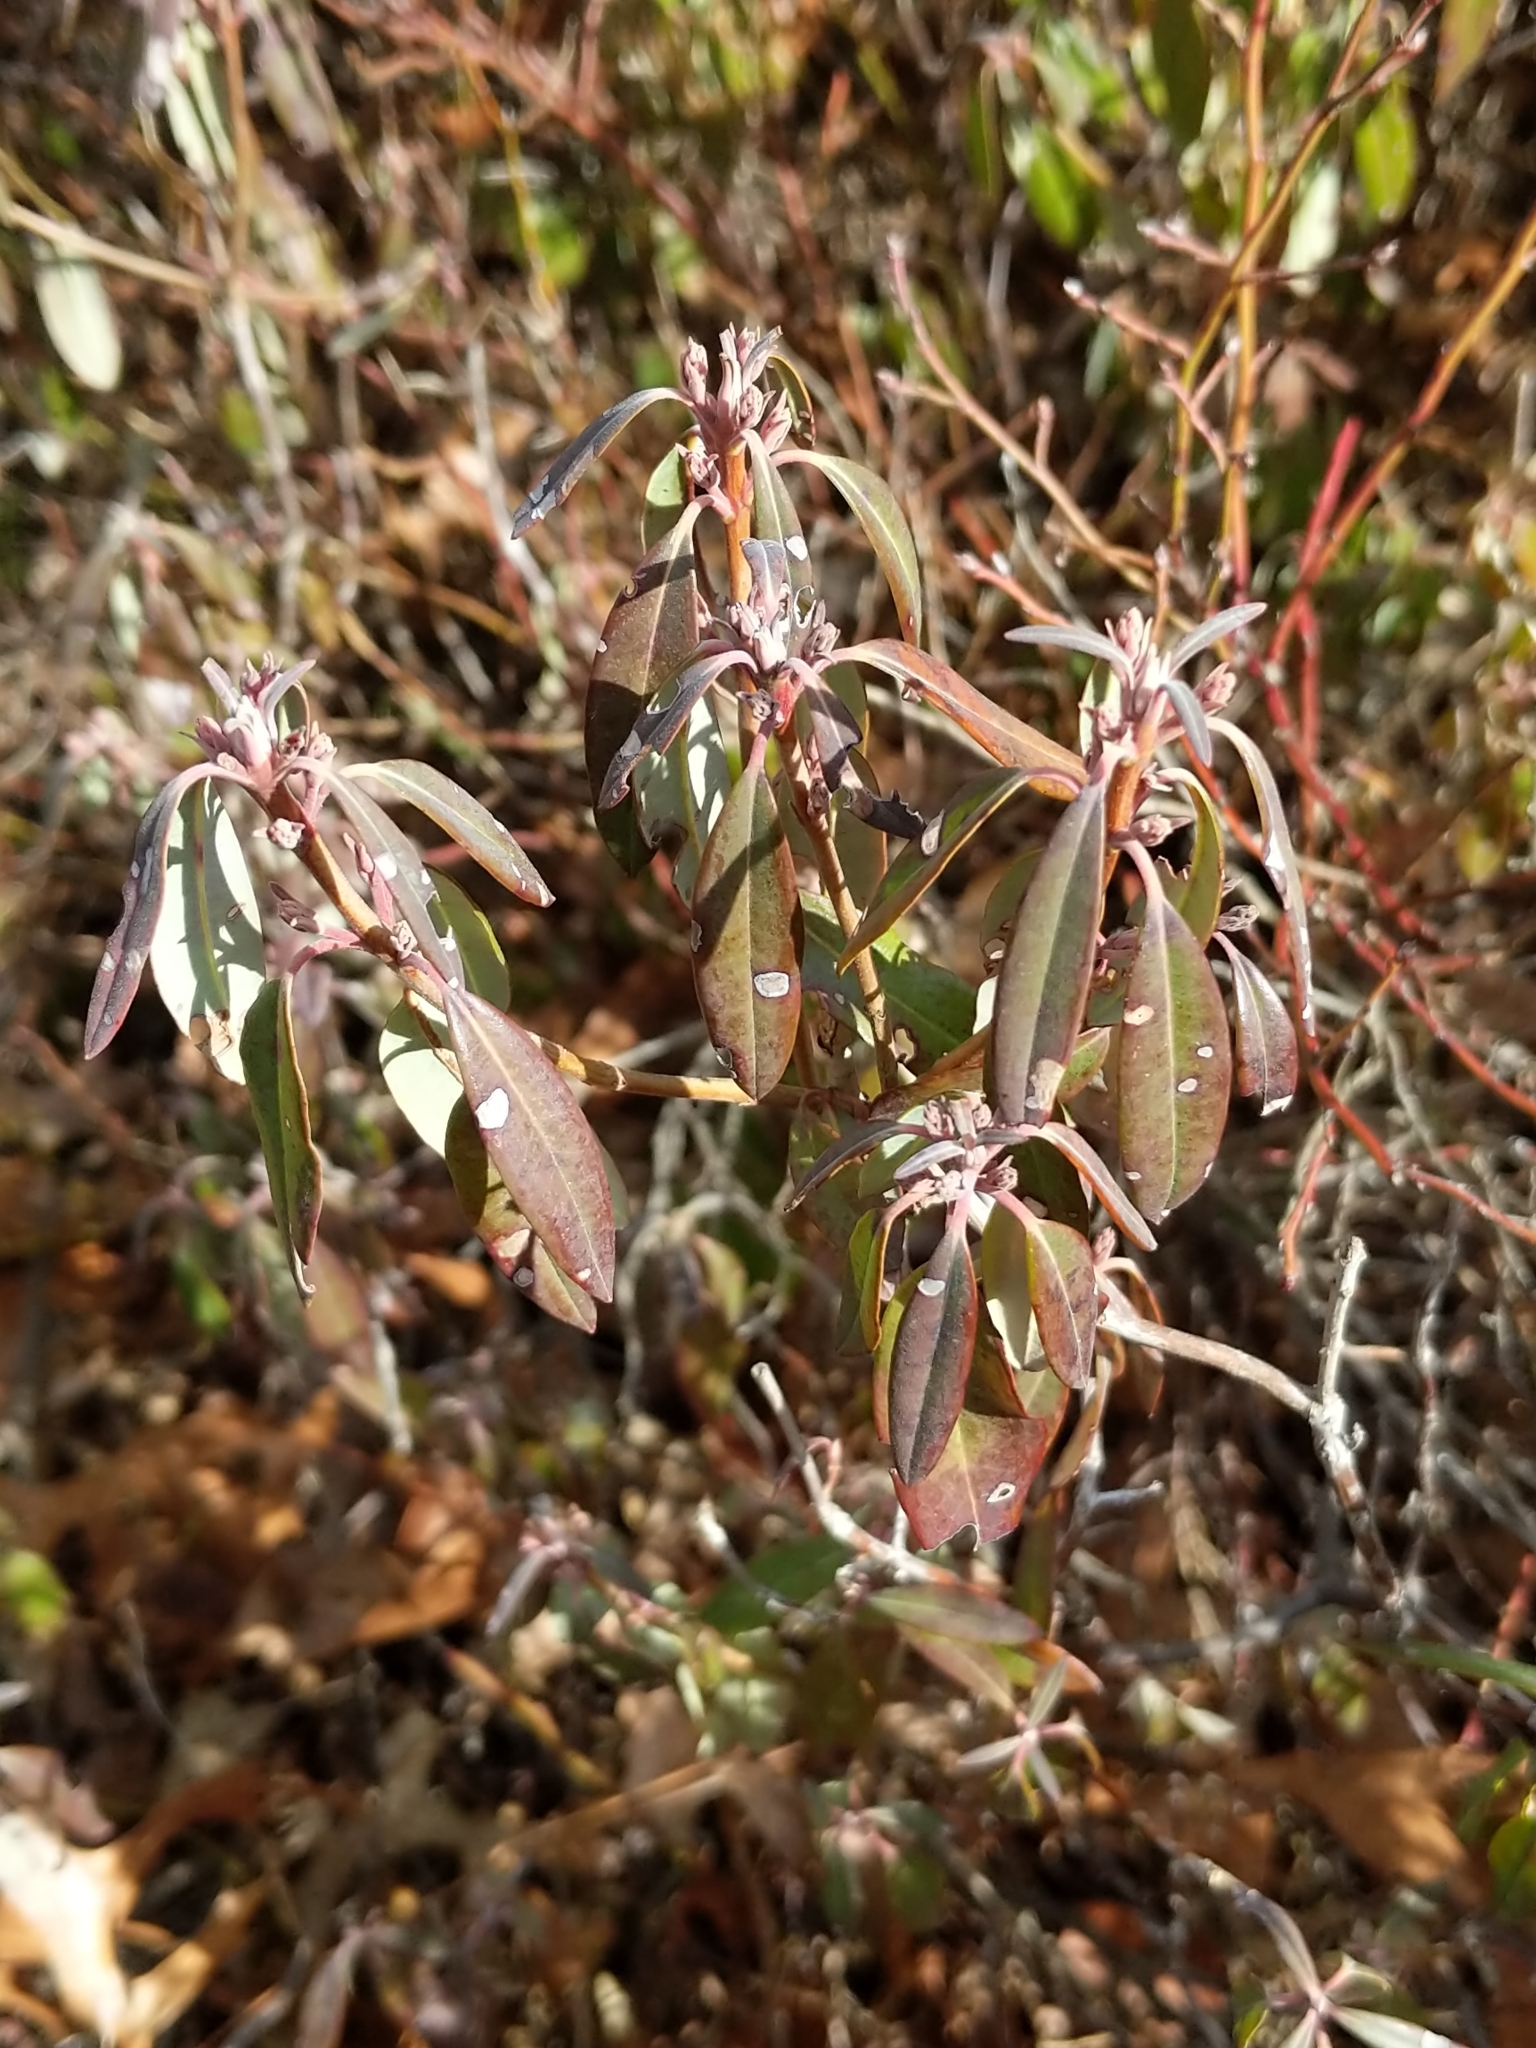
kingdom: Plantae
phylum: Tracheophyta
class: Magnoliopsida
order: Ericales
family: Ericaceae
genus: Kalmia
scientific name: Kalmia angustifolia
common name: Sheep-laurel
